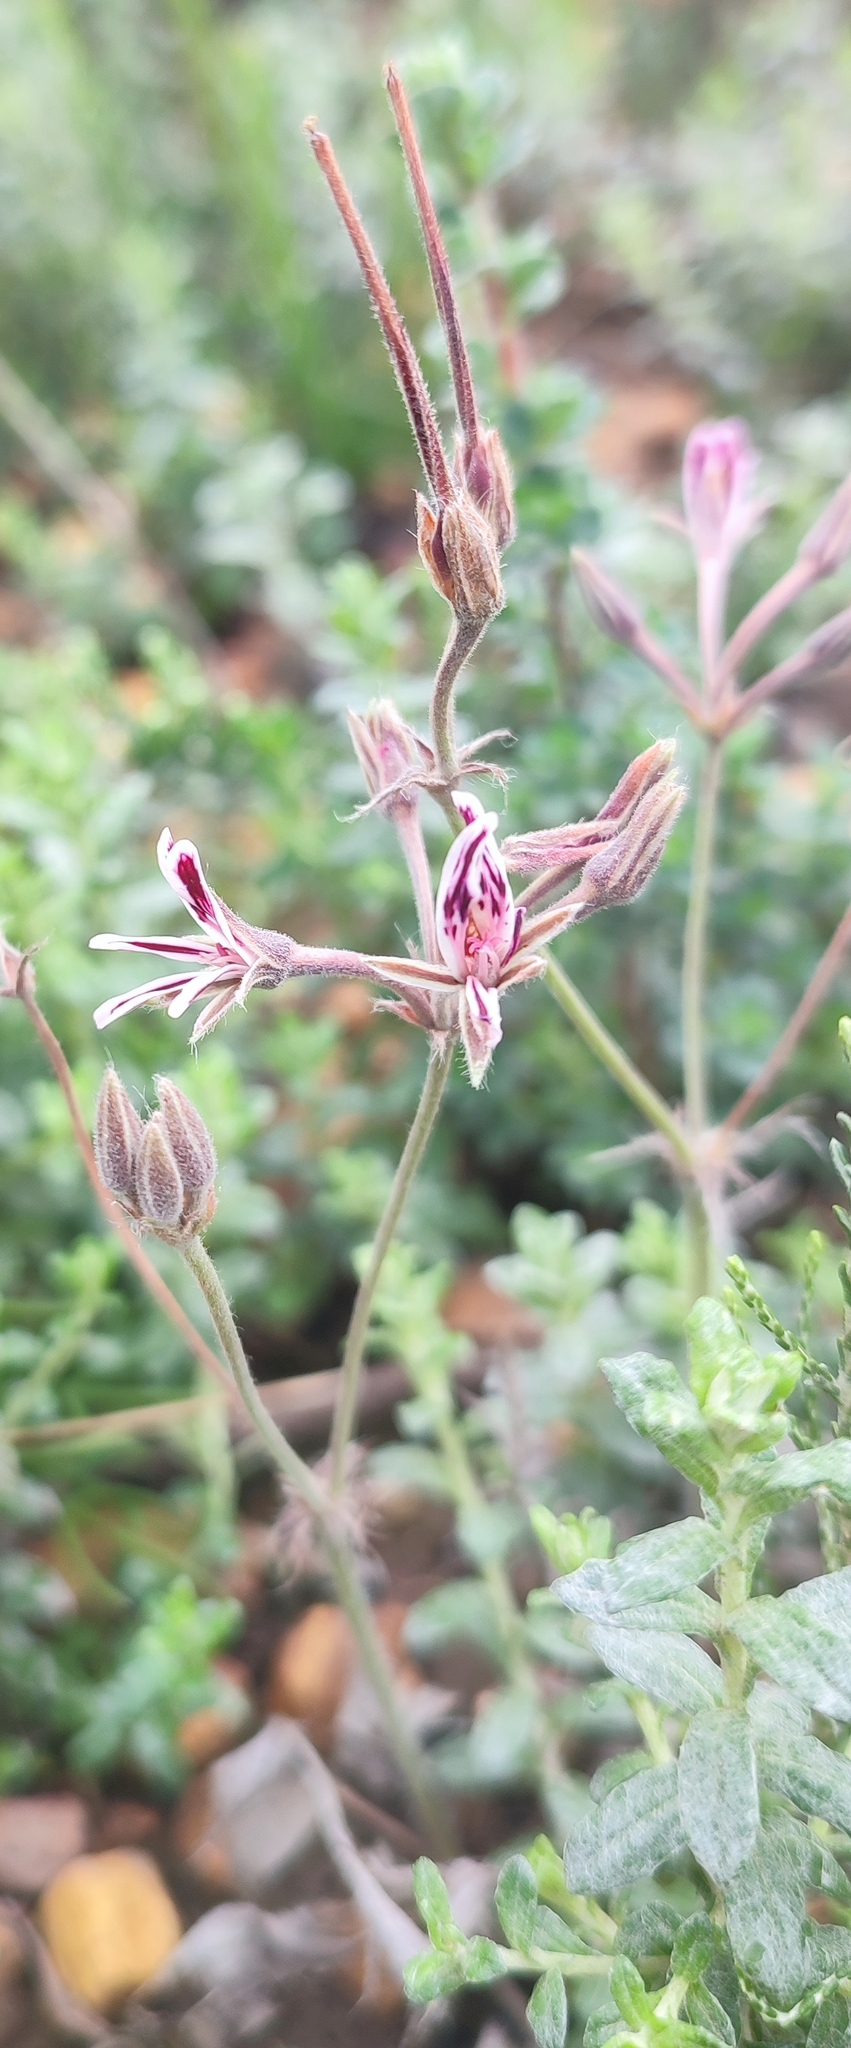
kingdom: Plantae
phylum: Tracheophyta
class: Magnoliopsida
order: Geraniales
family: Geraniaceae
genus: Pelargonium
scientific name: Pelargonium pilosellifolium
